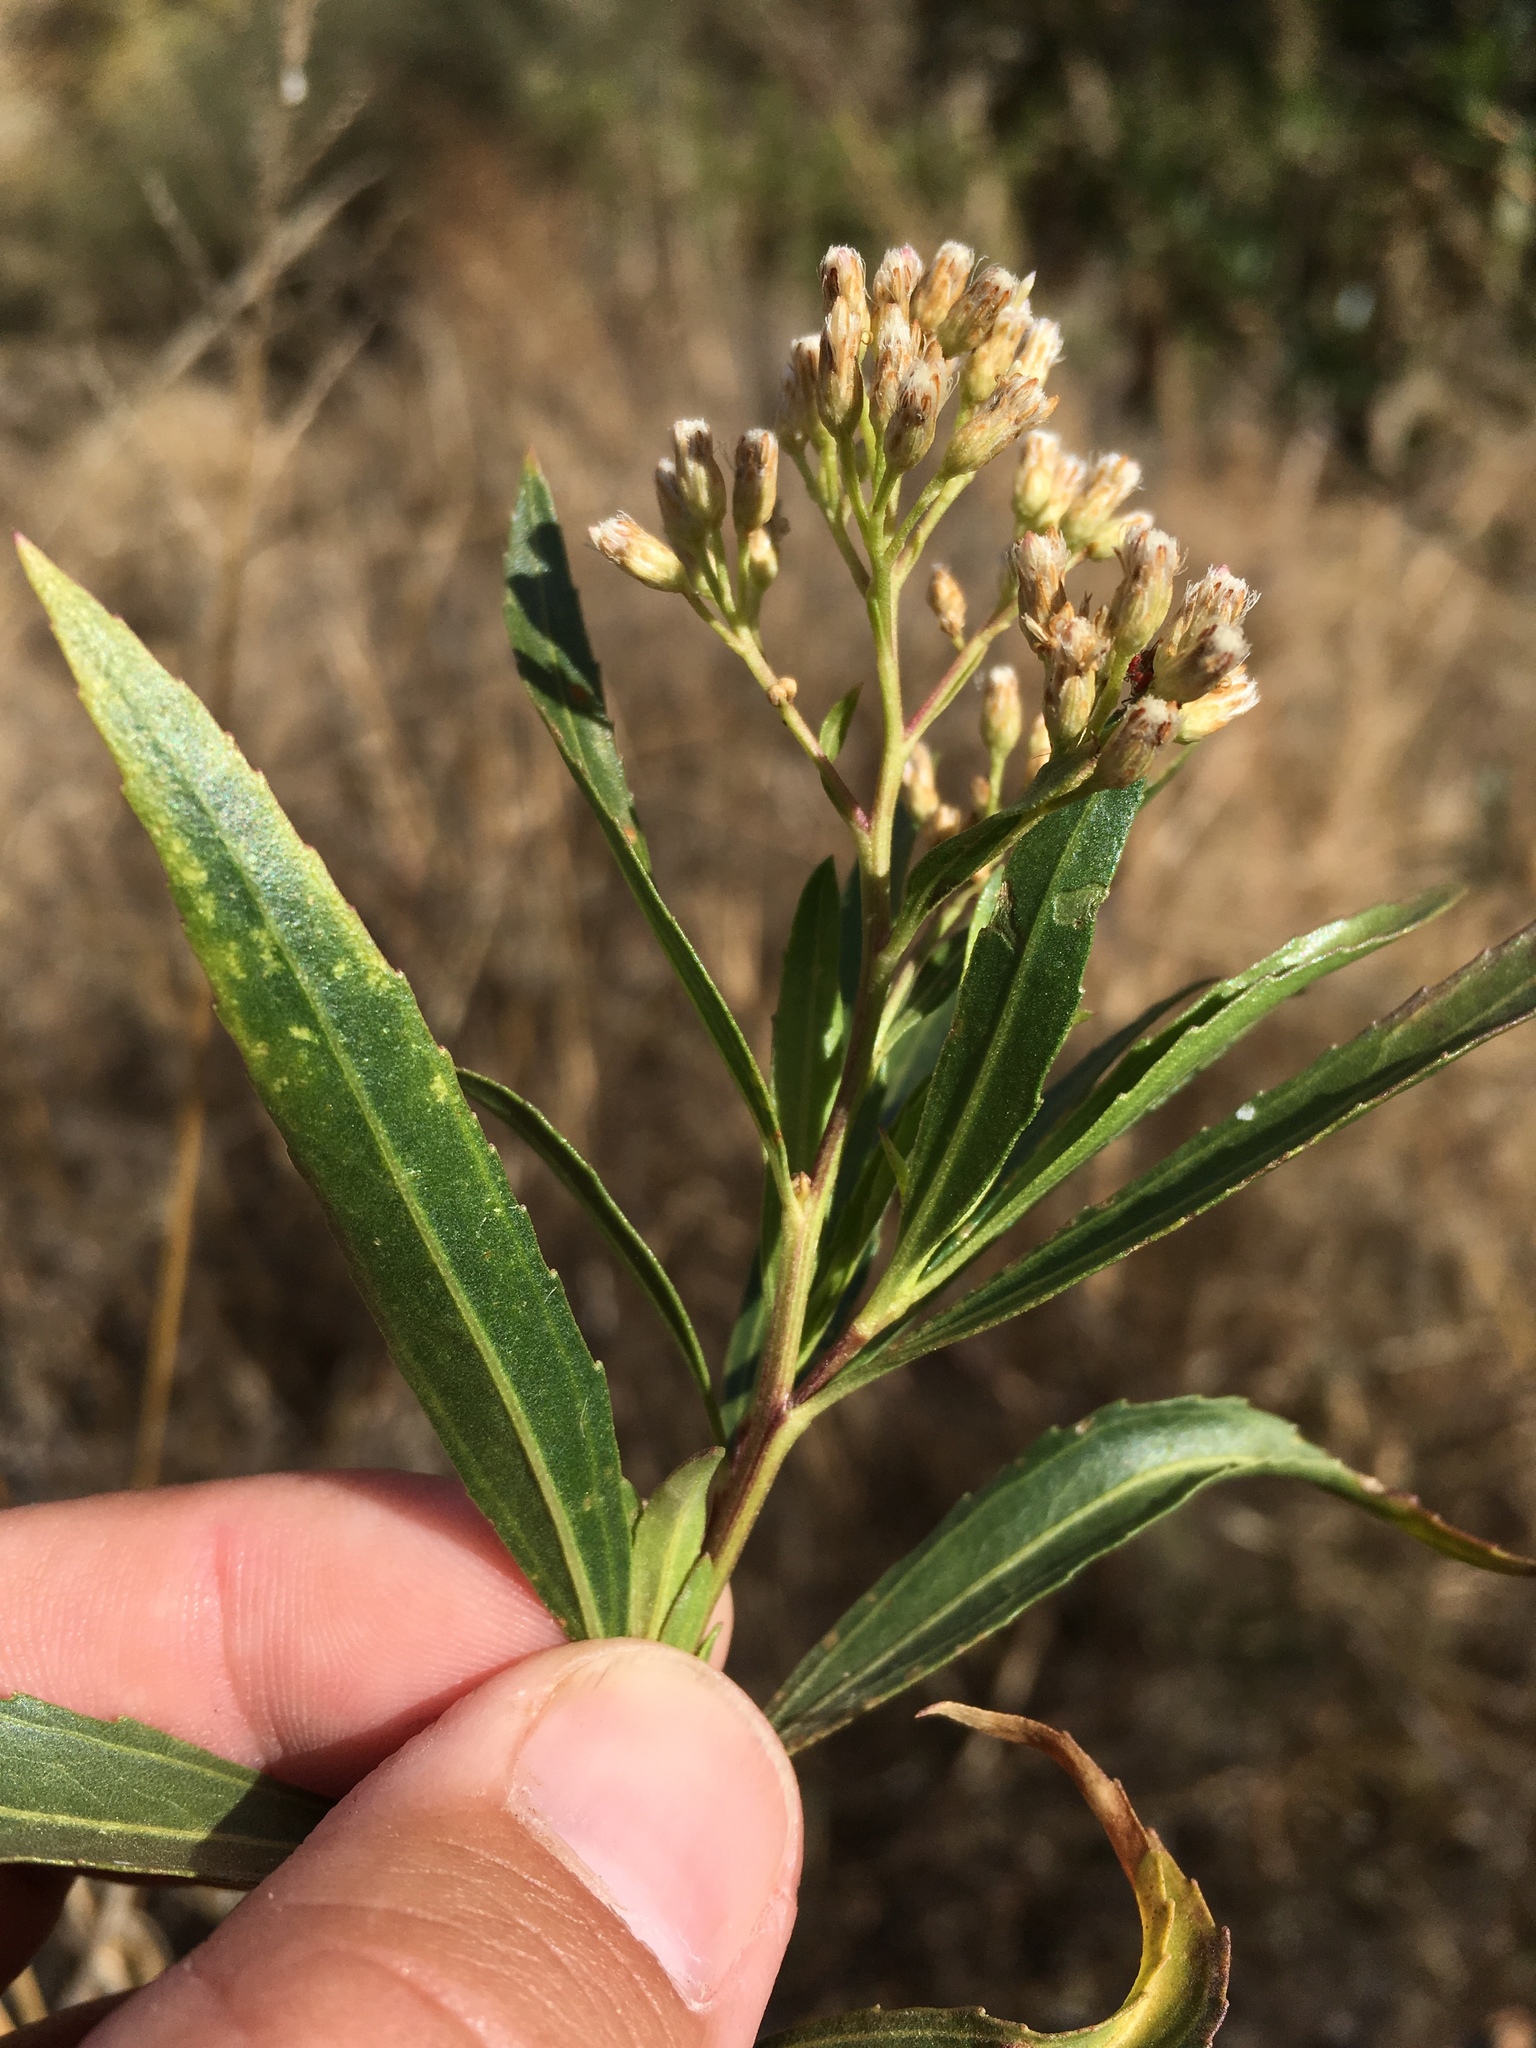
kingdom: Plantae
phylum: Tracheophyta
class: Magnoliopsida
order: Asterales
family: Asteraceae
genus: Baccharis
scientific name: Baccharis salicifolia
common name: Sticky baccharis
